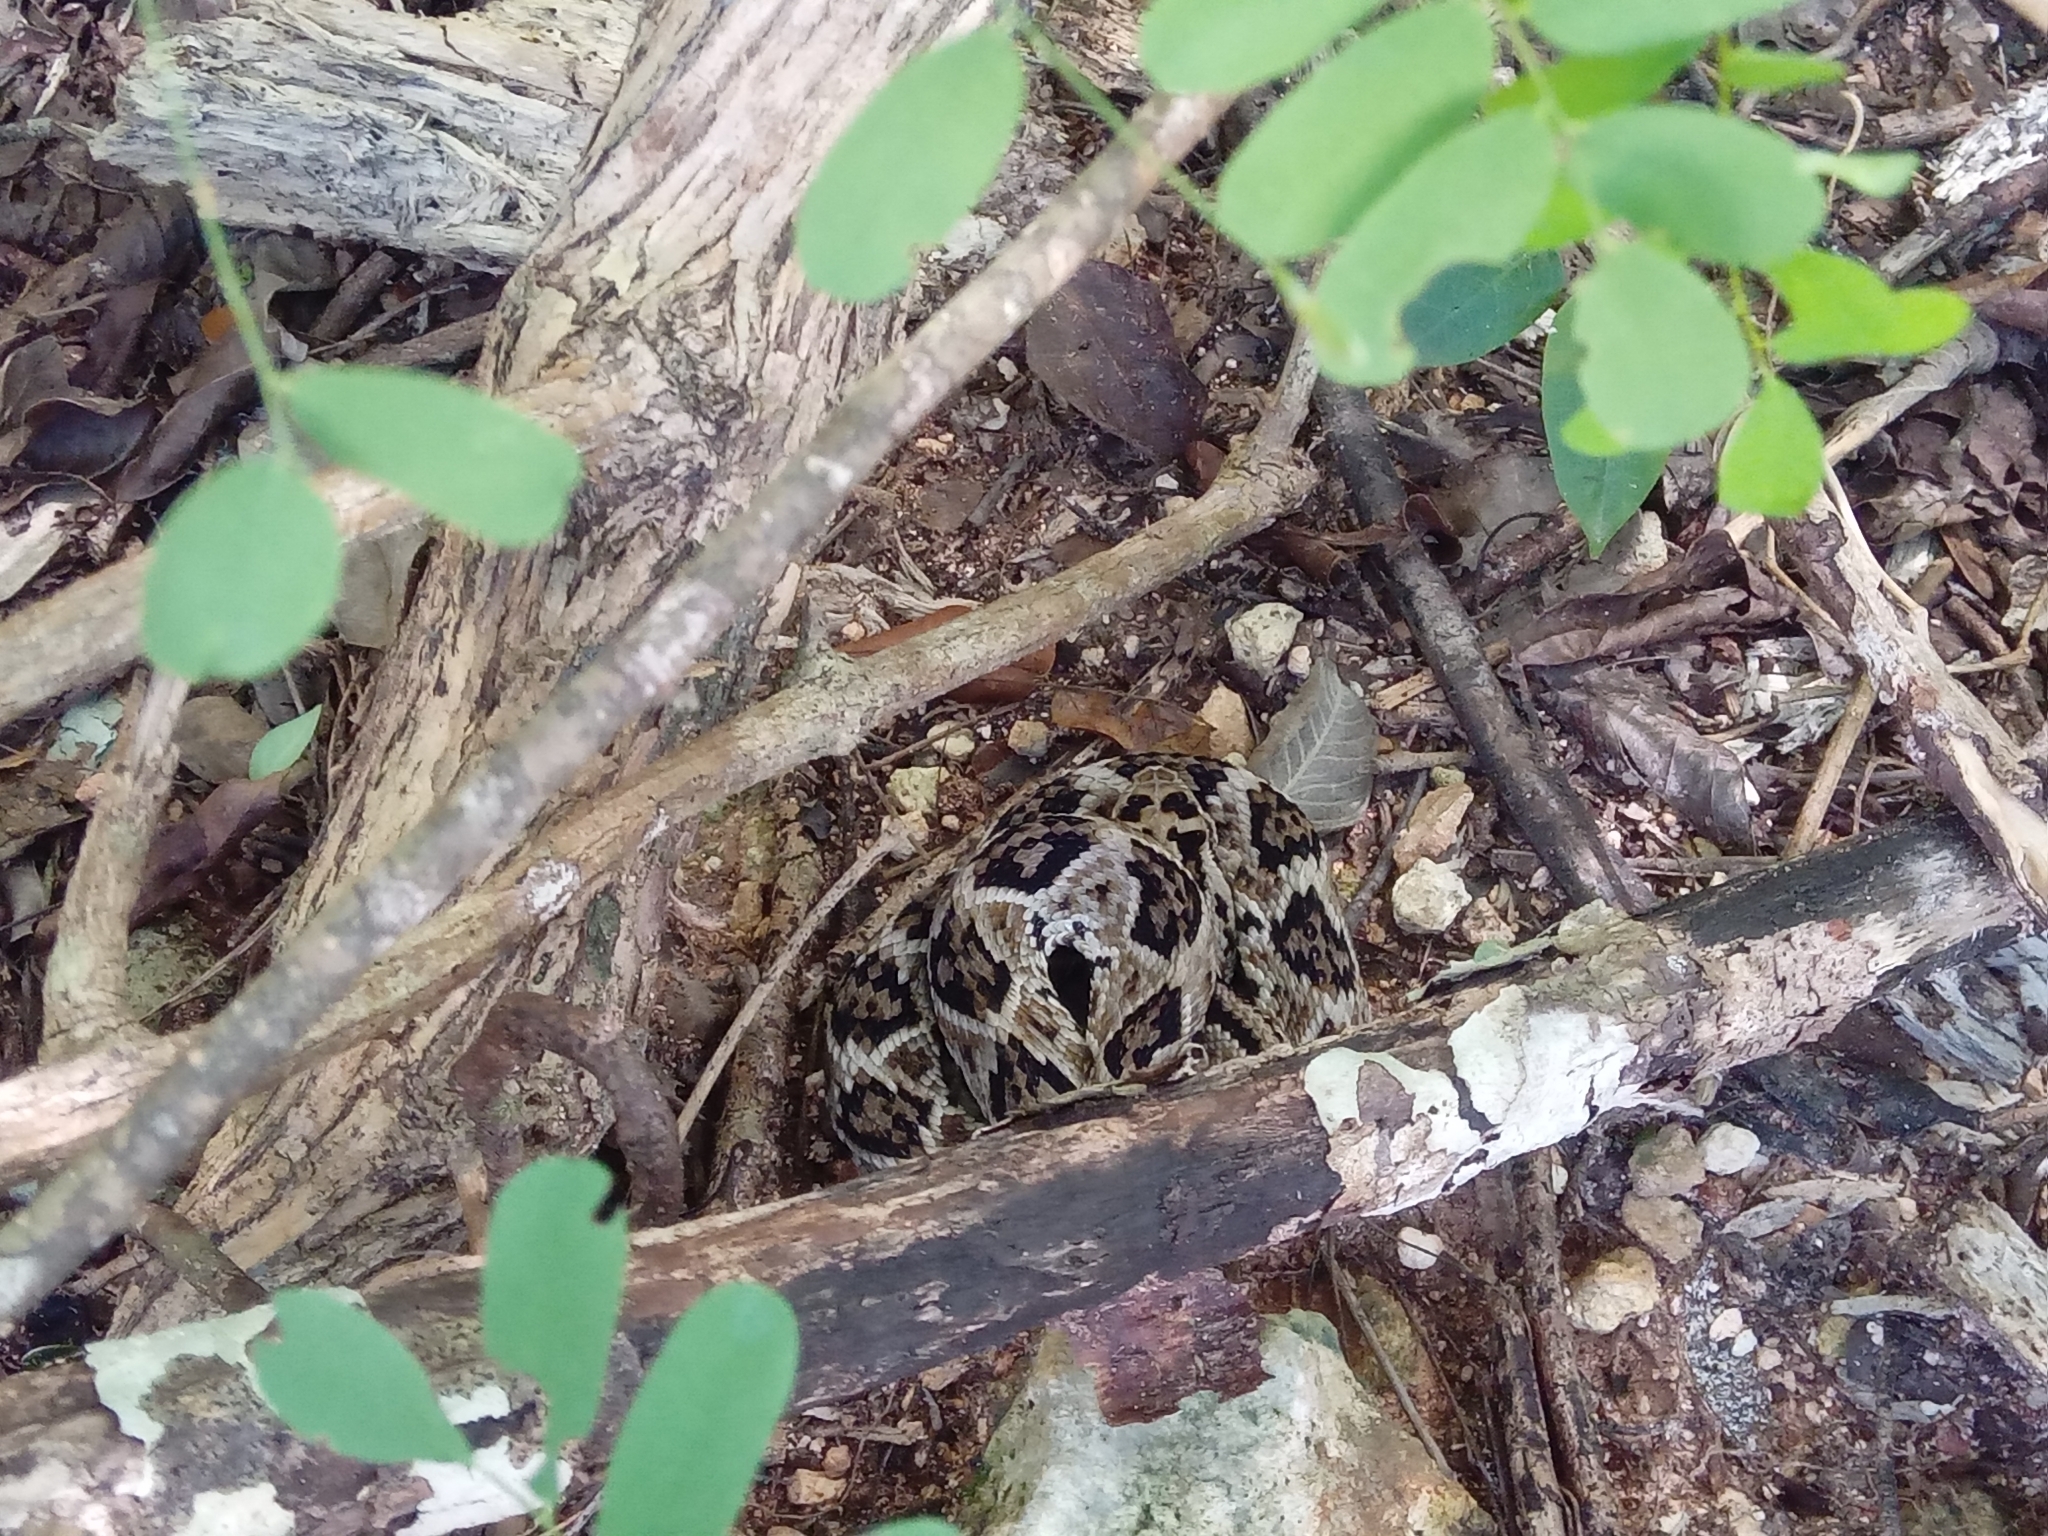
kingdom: Animalia
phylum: Chordata
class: Squamata
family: Viperidae
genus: Crotalus
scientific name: Crotalus tzabcan
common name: Yucatan neotropical rattlesnake
